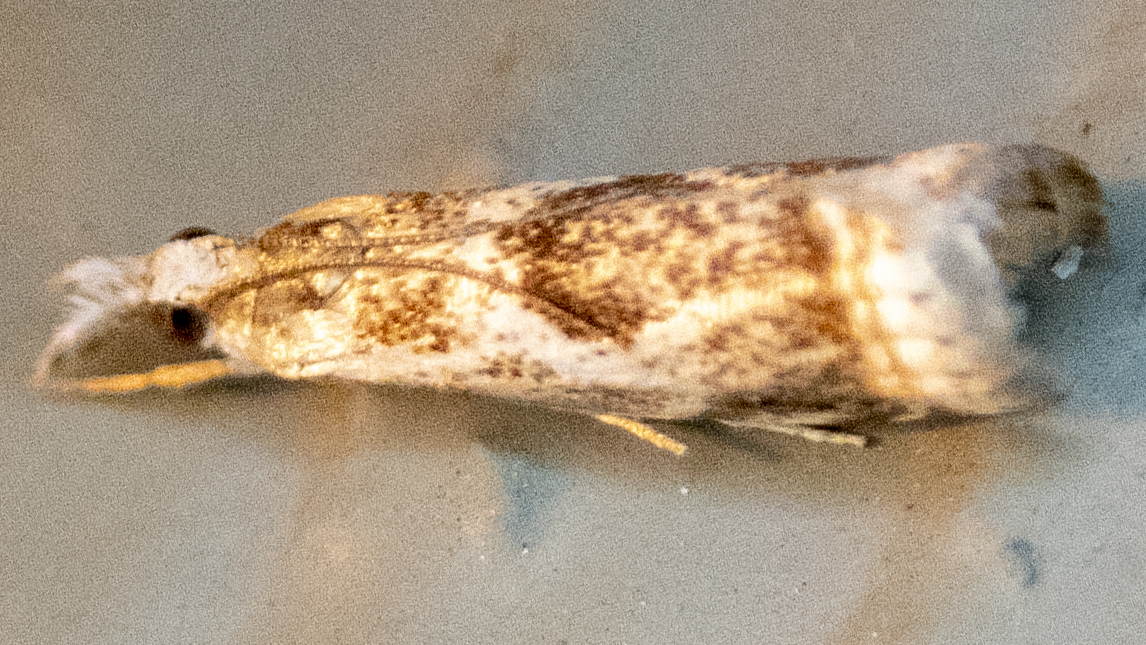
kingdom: Animalia
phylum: Arthropoda
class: Insecta
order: Lepidoptera
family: Crambidae
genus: Microcrambus
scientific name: Microcrambus elegans
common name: Elegant grass-veneer
